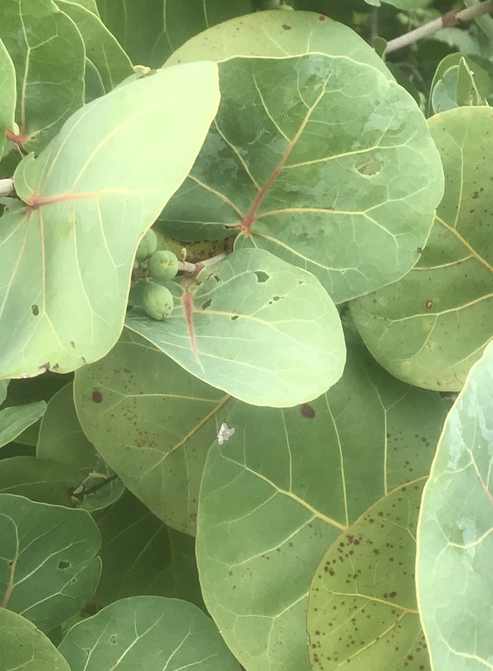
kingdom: Plantae
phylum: Tracheophyta
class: Magnoliopsida
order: Caryophyllales
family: Polygonaceae
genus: Coccoloba
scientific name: Coccoloba uvifera
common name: Seagrape
